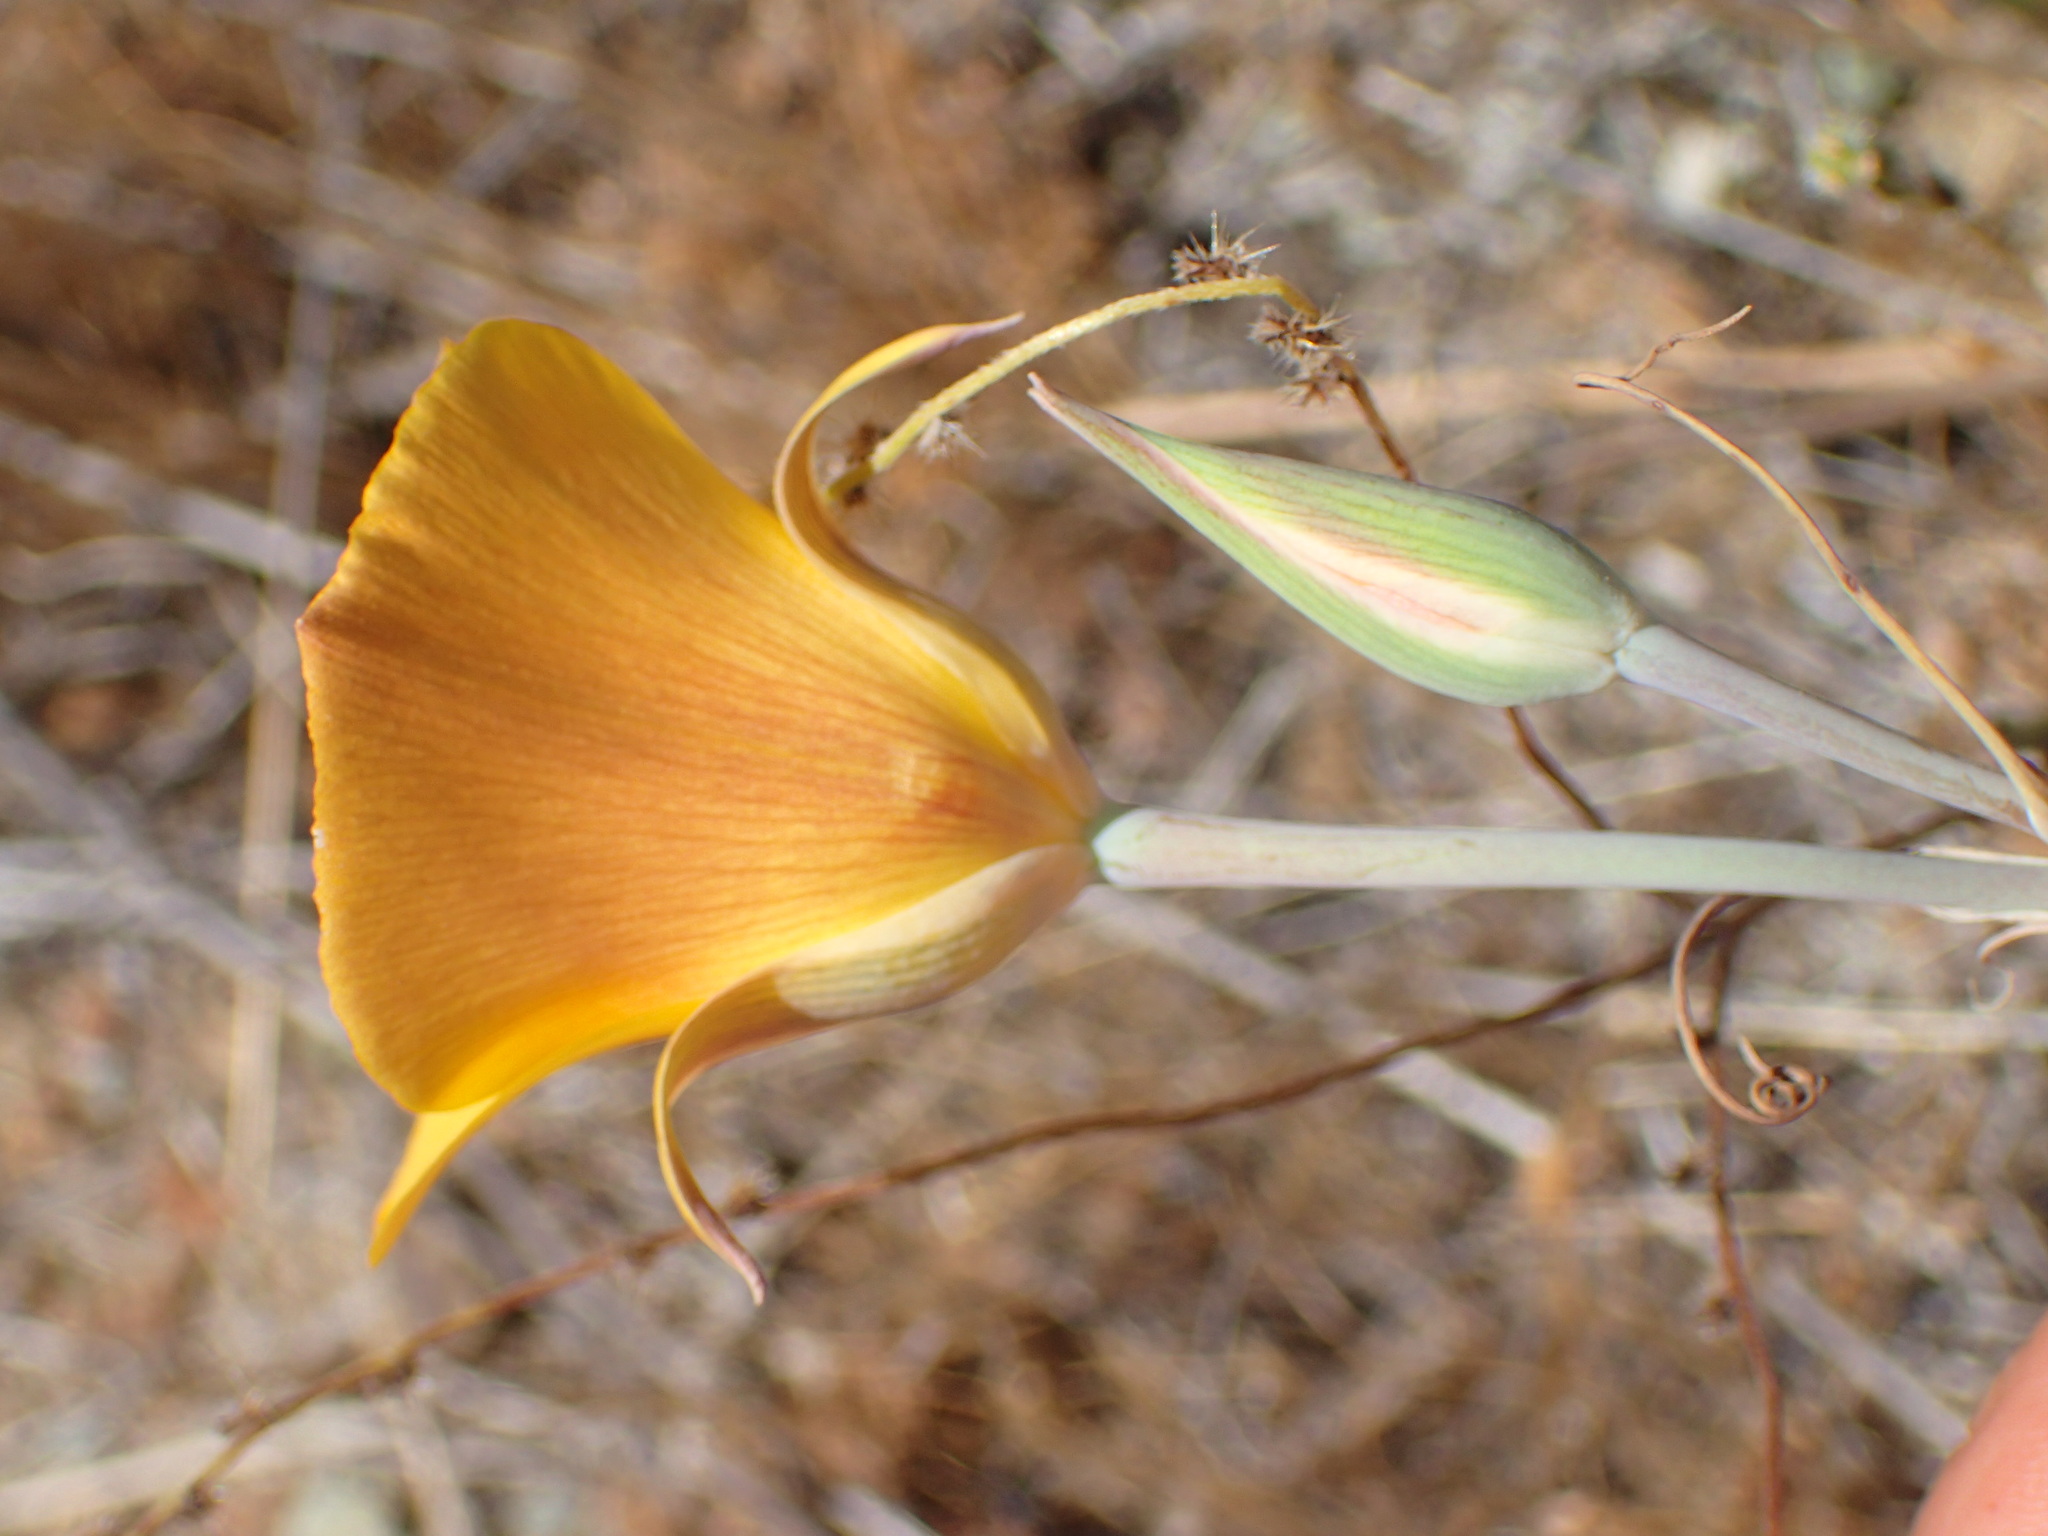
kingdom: Plantae
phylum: Tracheophyta
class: Liliopsida
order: Liliales
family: Liliaceae
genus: Calochortus
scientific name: Calochortus clavatus
